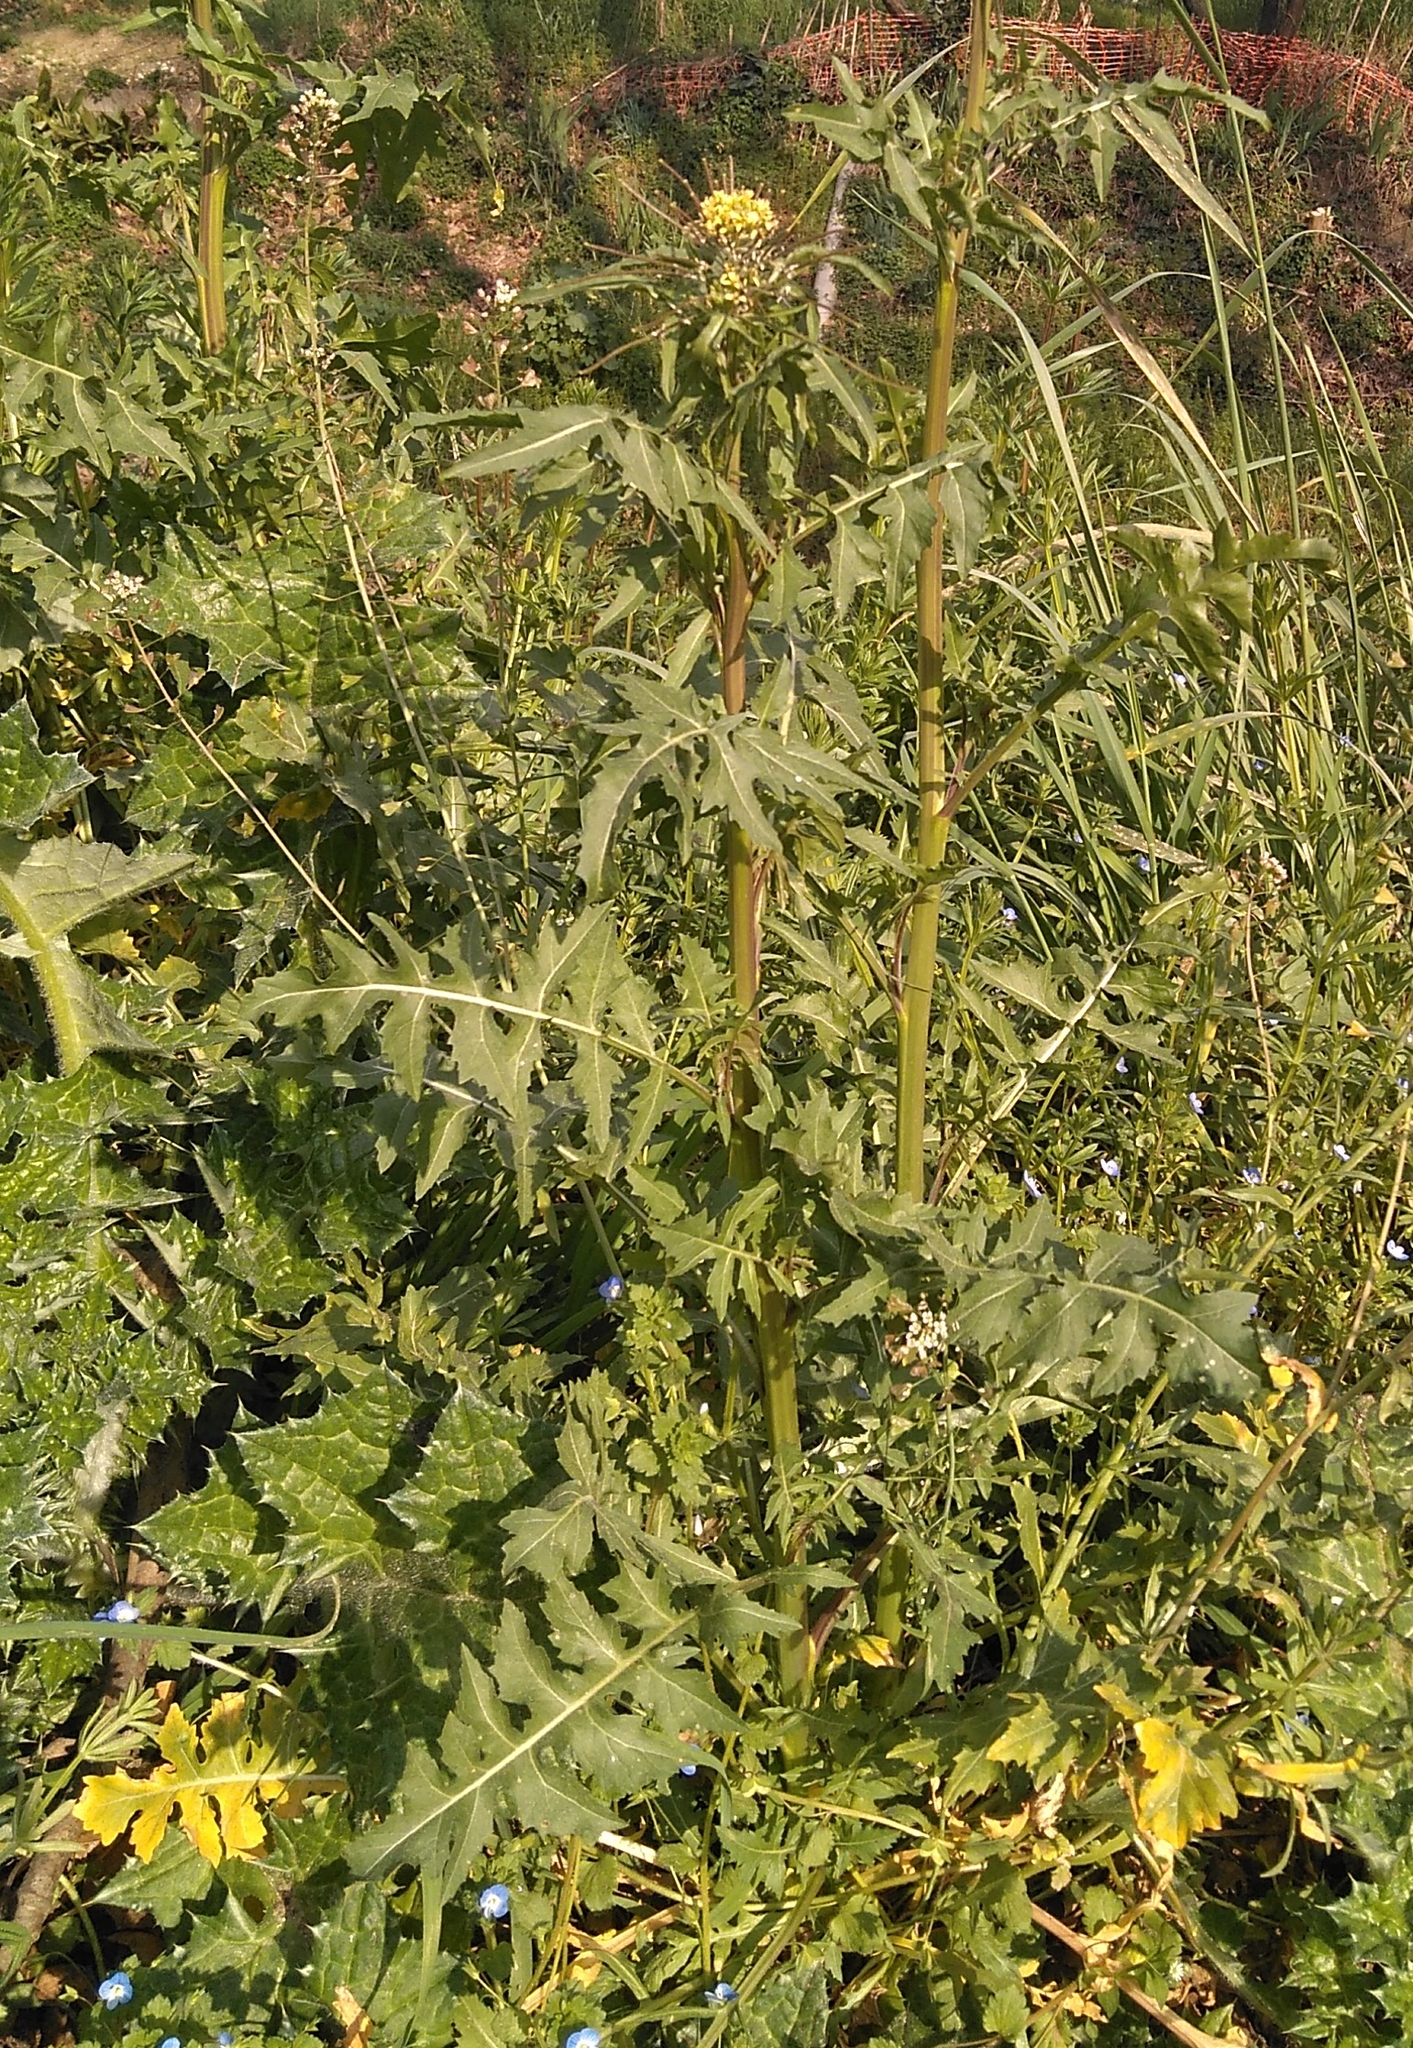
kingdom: Plantae
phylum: Tracheophyta
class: Magnoliopsida
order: Brassicales
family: Brassicaceae
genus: Sisymbrium
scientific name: Sisymbrium irio
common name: London rocket
